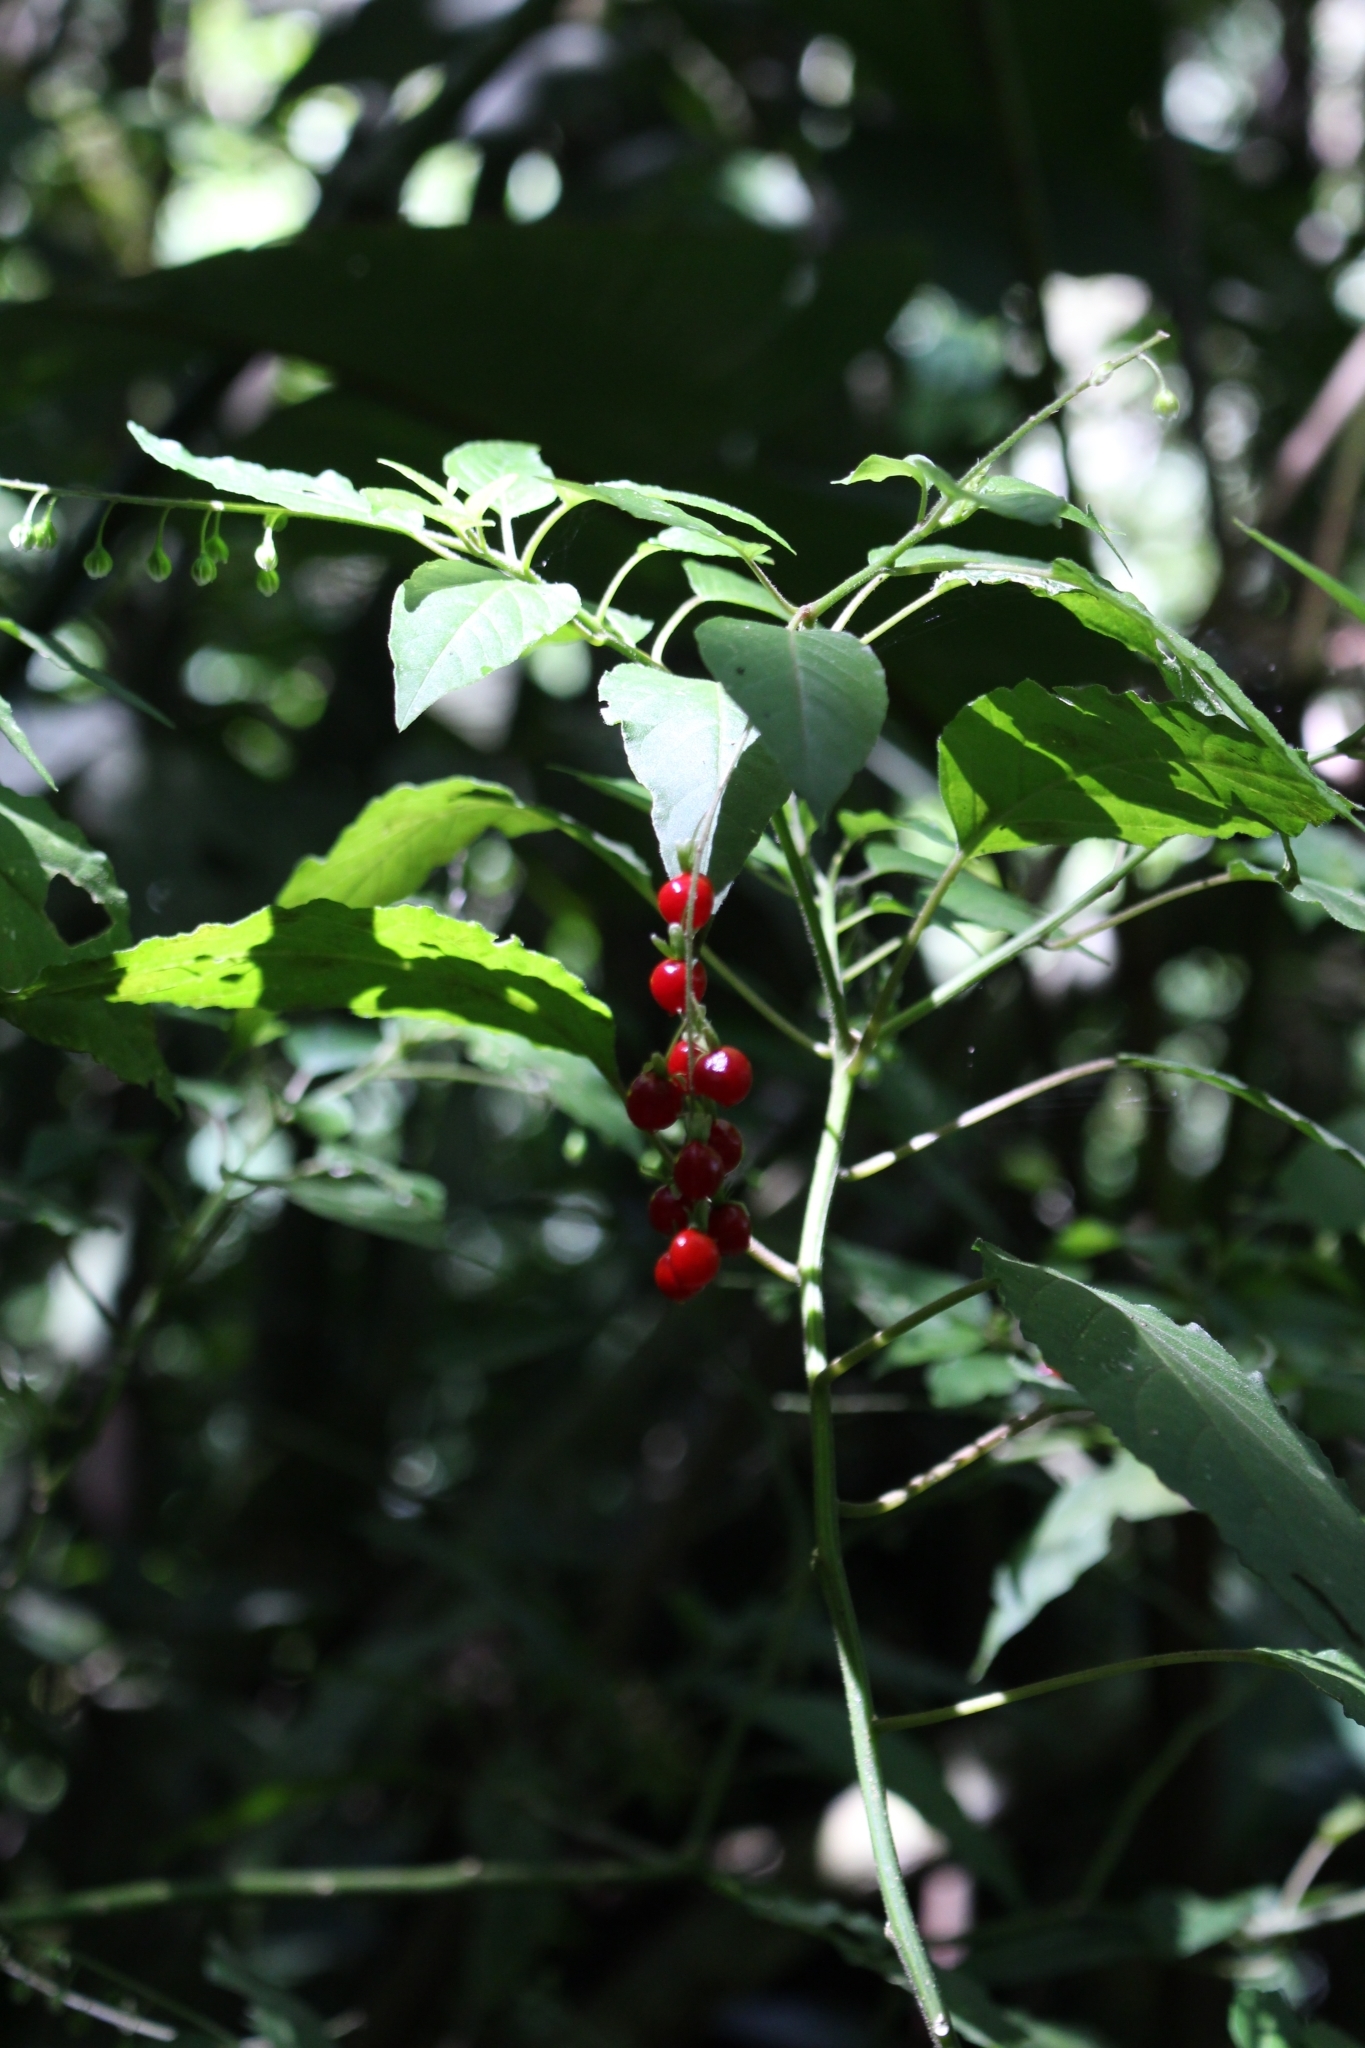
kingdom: Plantae
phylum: Tracheophyta
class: Magnoliopsida
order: Caryophyllales
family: Phytolaccaceae
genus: Rivina
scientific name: Rivina humilis
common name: Rougeplant
